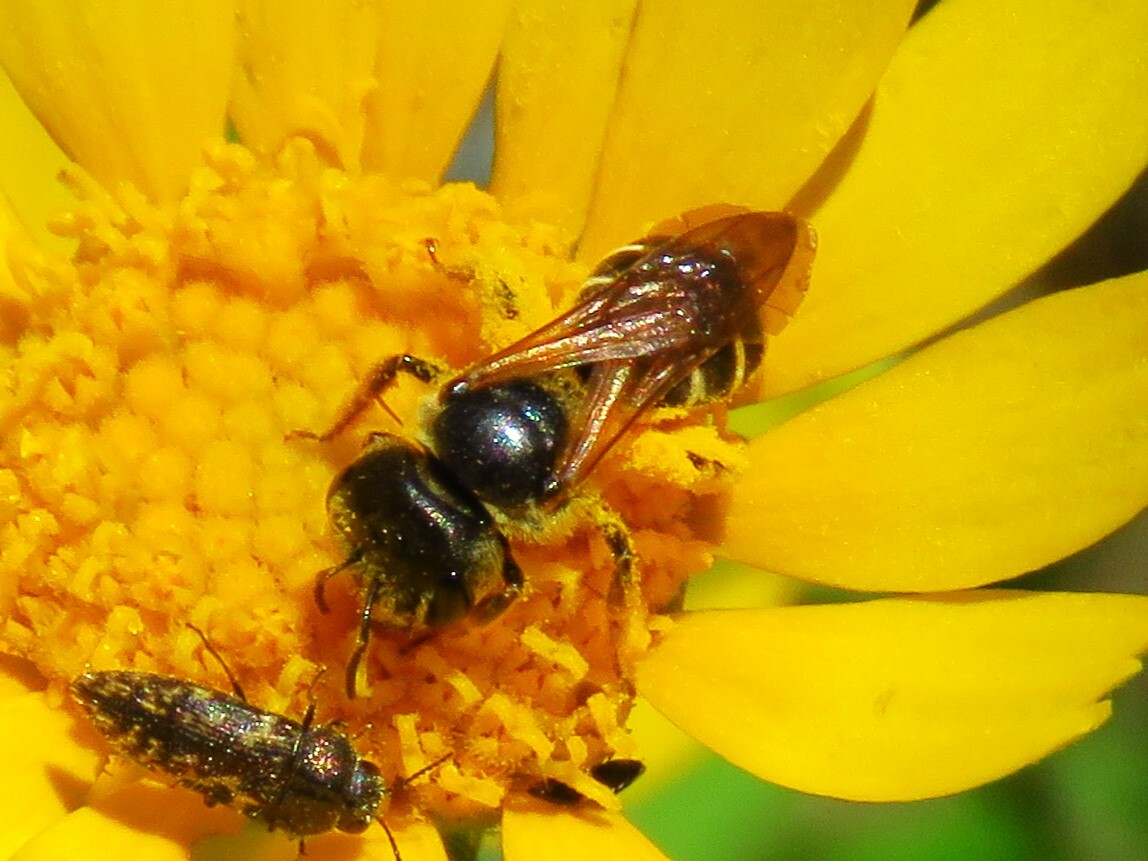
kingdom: Animalia
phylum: Arthropoda
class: Insecta
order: Hymenoptera
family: Halictidae
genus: Halictus
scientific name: Halictus ligatus
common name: Ligated furrow bee
